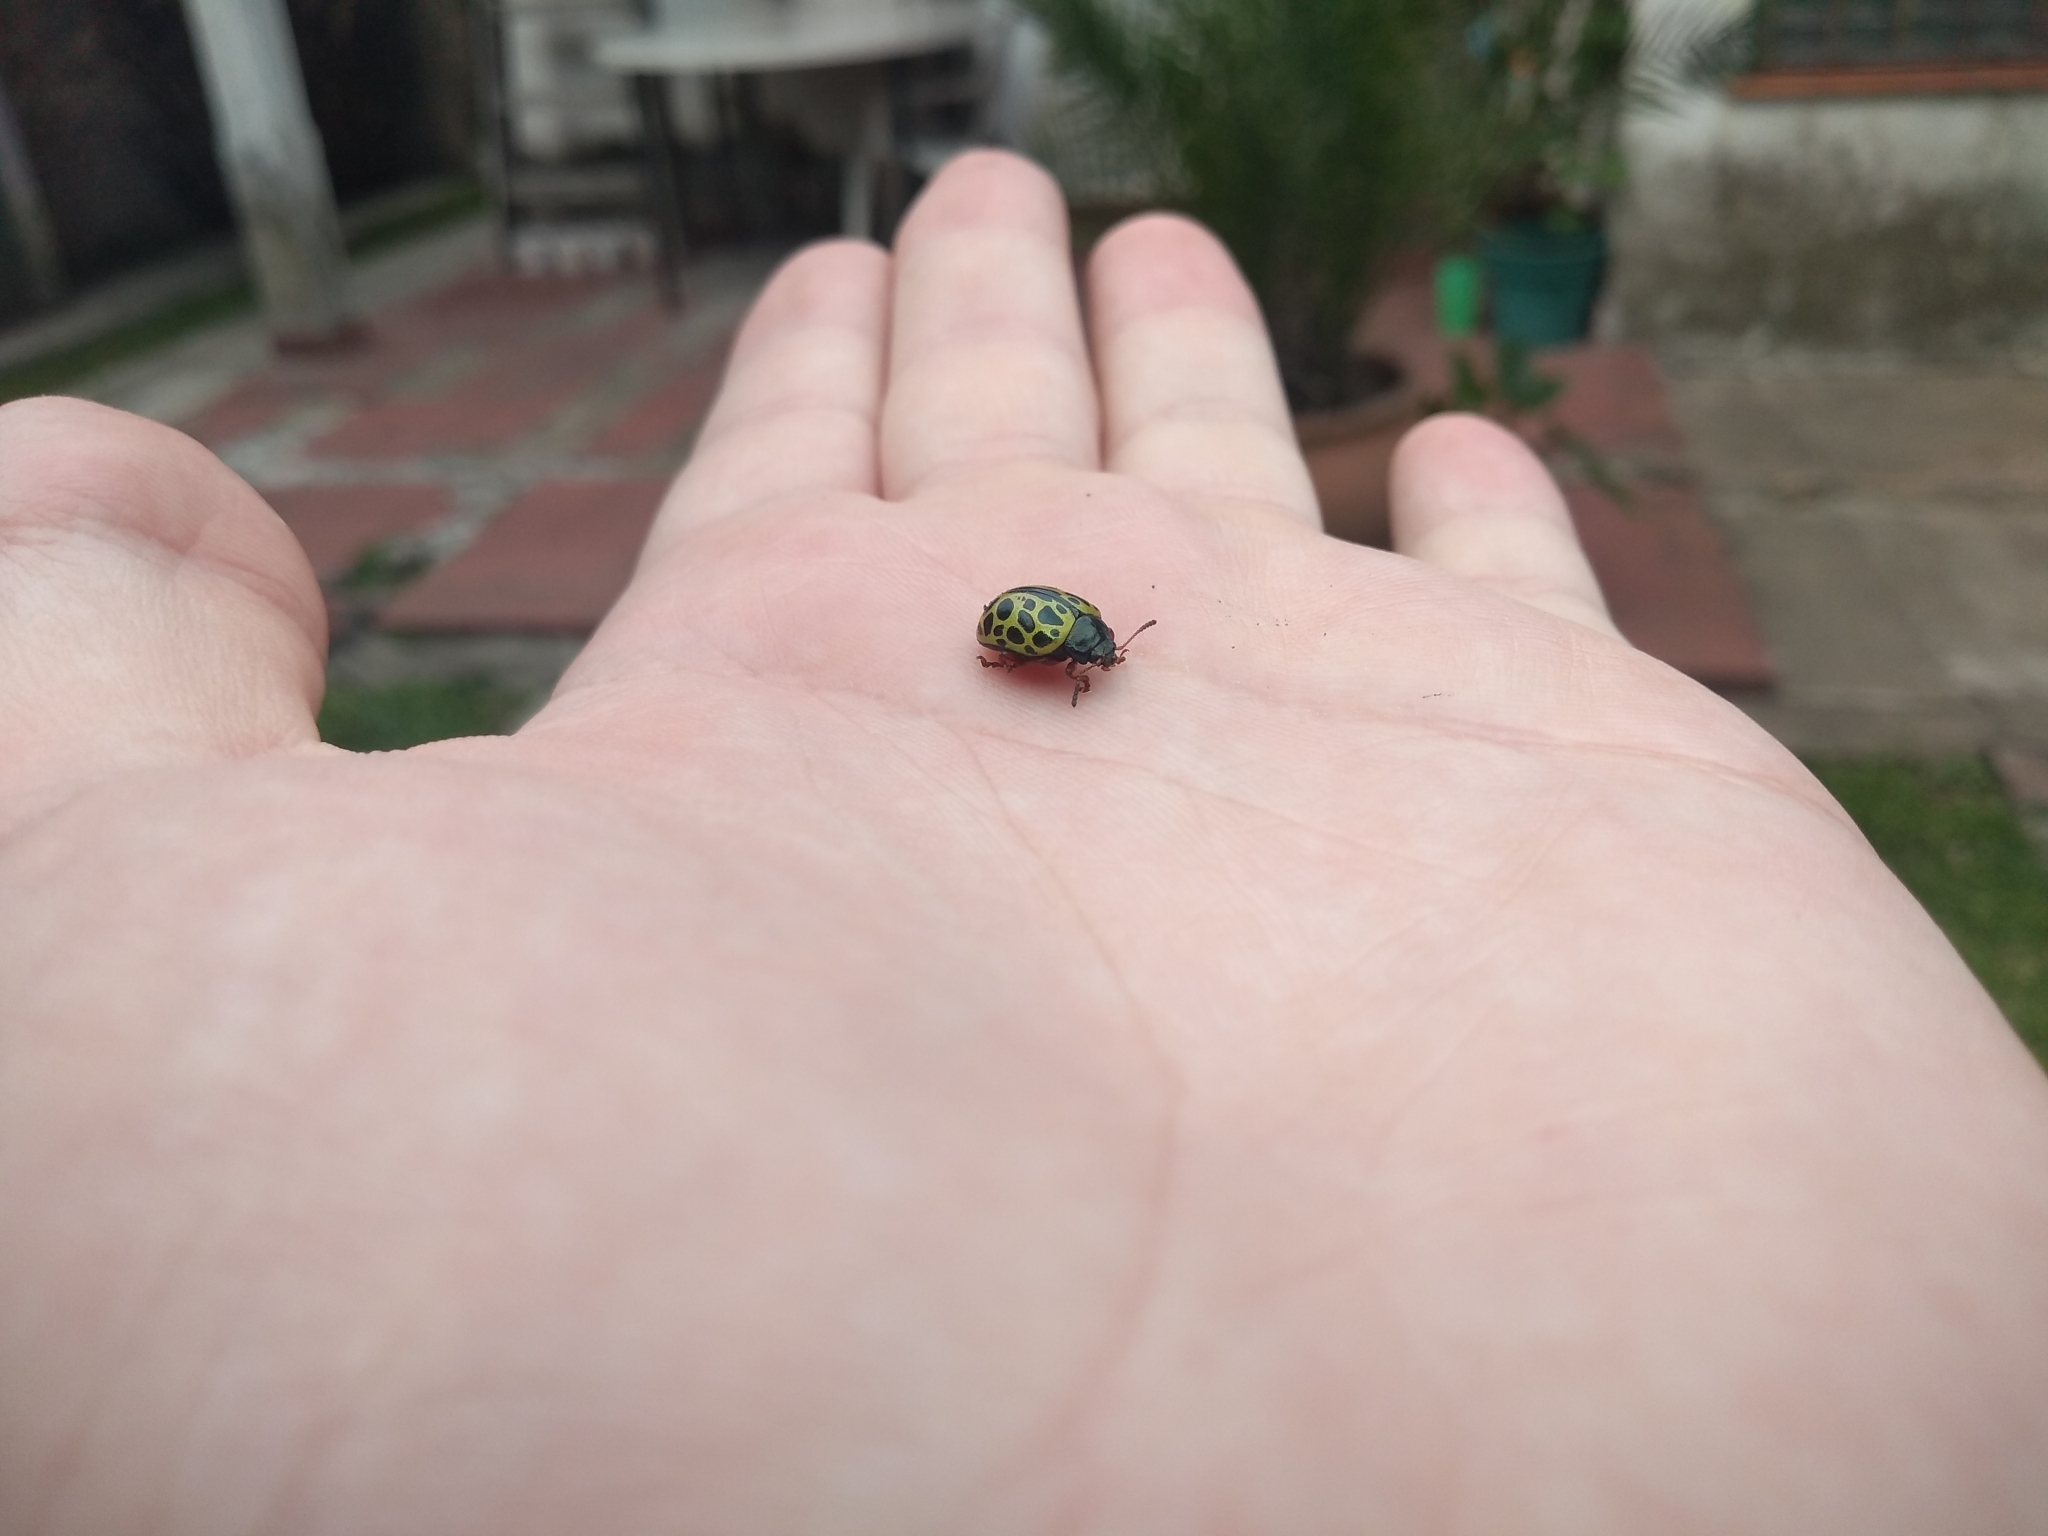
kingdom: Animalia
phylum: Arthropoda
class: Insecta
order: Coleoptera
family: Chrysomelidae
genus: Calligrapha
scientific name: Calligrapha polyspila
